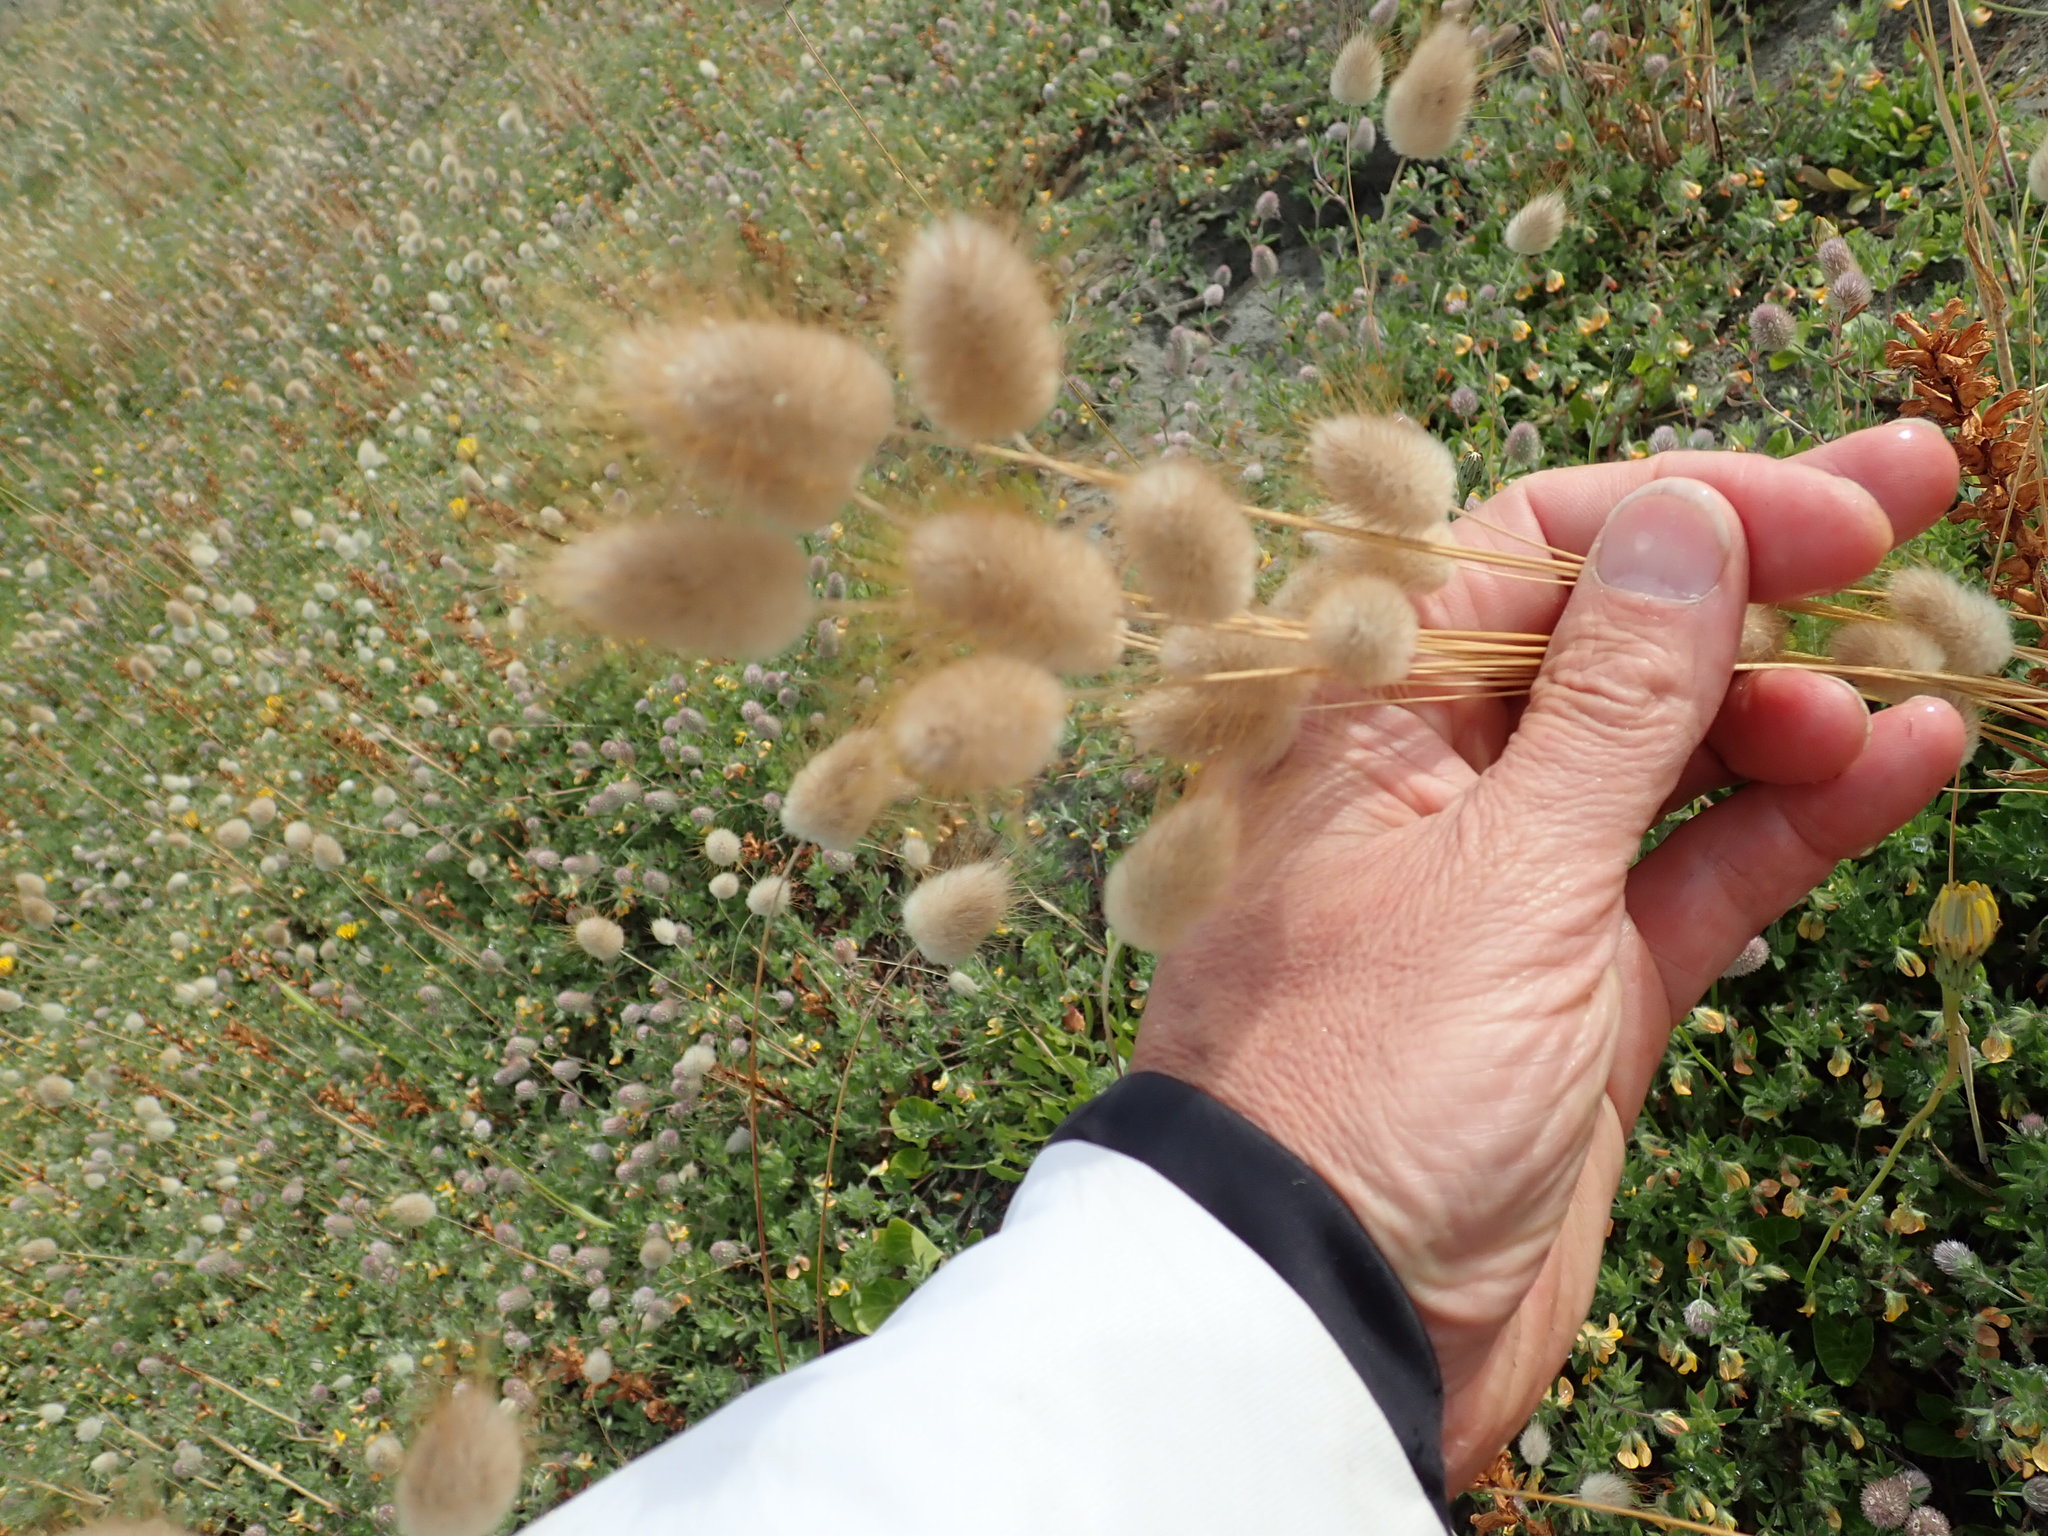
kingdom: Plantae
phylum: Tracheophyta
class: Liliopsida
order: Poales
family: Poaceae
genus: Lagurus
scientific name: Lagurus ovatus
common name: Hare's-tail
